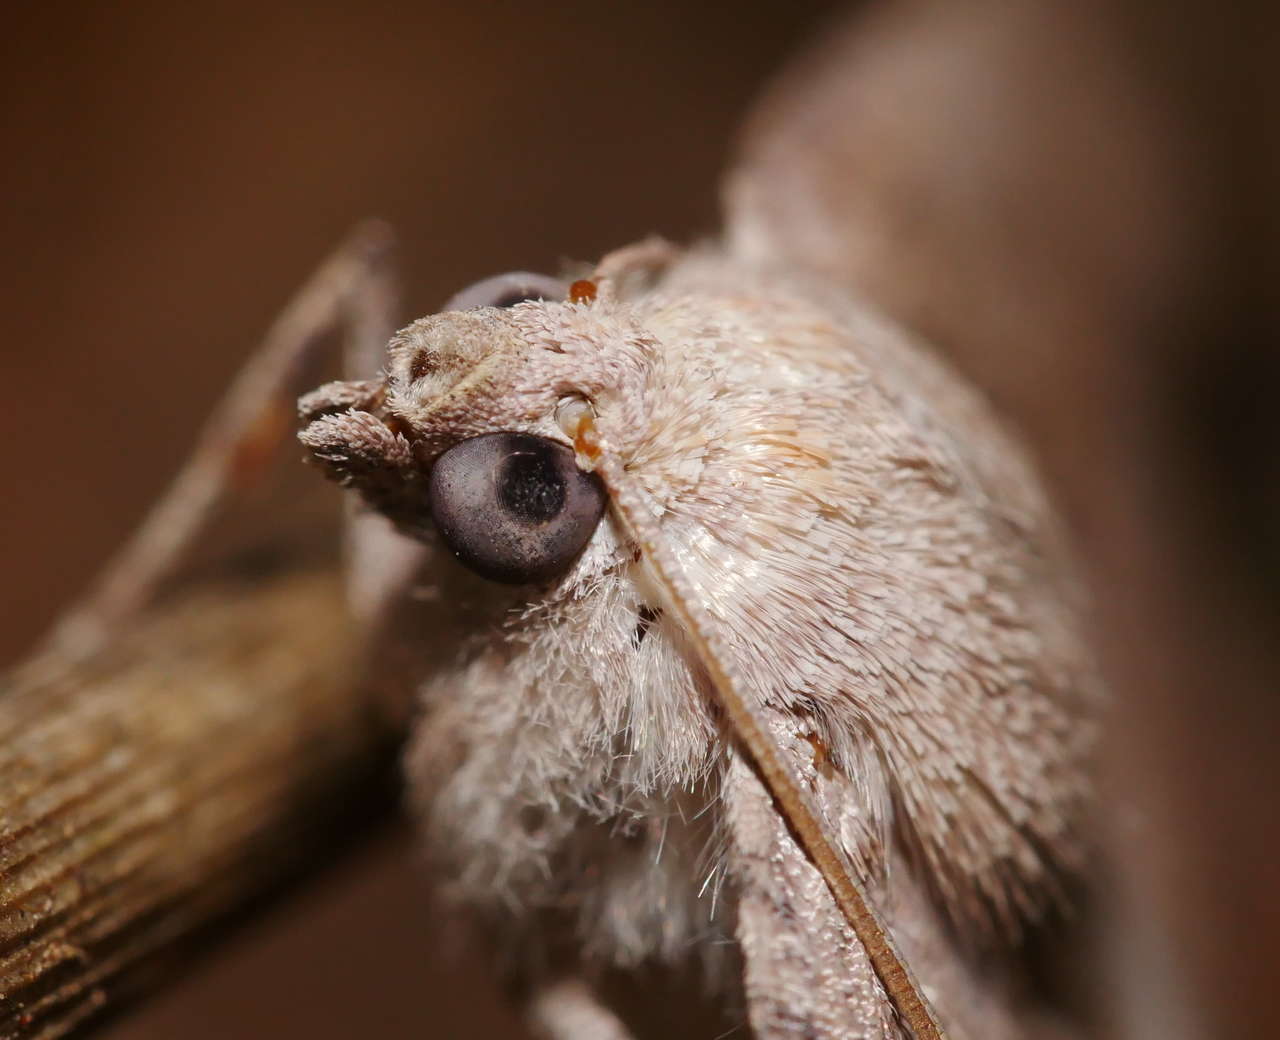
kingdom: Animalia
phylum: Arthropoda
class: Insecta
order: Lepidoptera
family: Geometridae
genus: Mnesampela
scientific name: Mnesampela lenaea
